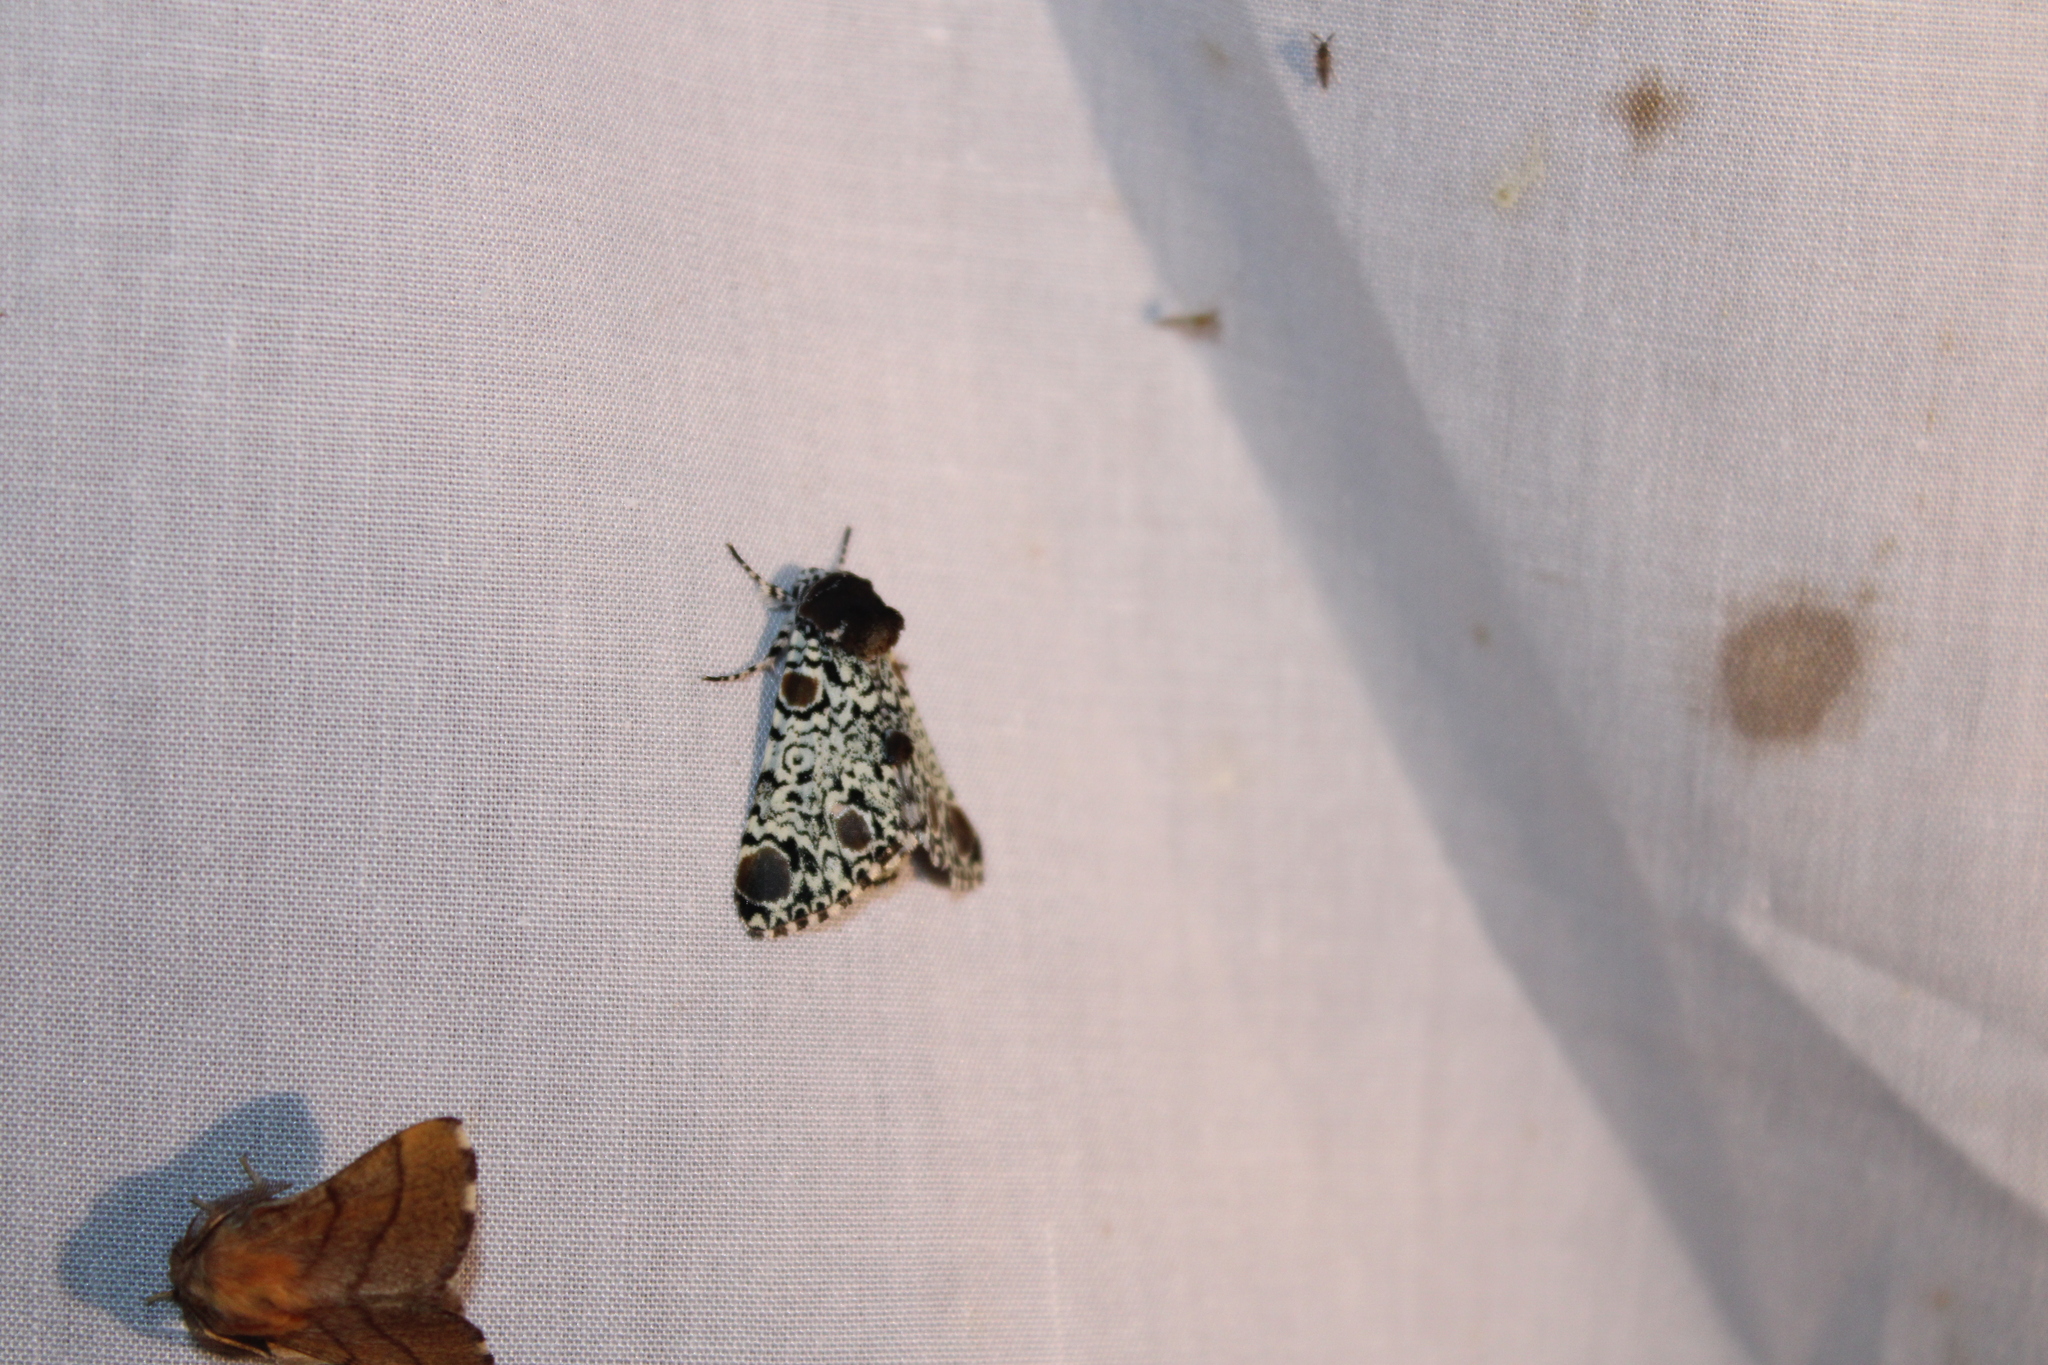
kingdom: Animalia
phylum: Arthropoda
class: Insecta
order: Lepidoptera
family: Noctuidae
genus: Harrisimemna
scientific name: Harrisimemna trisignata
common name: Harris threespot
